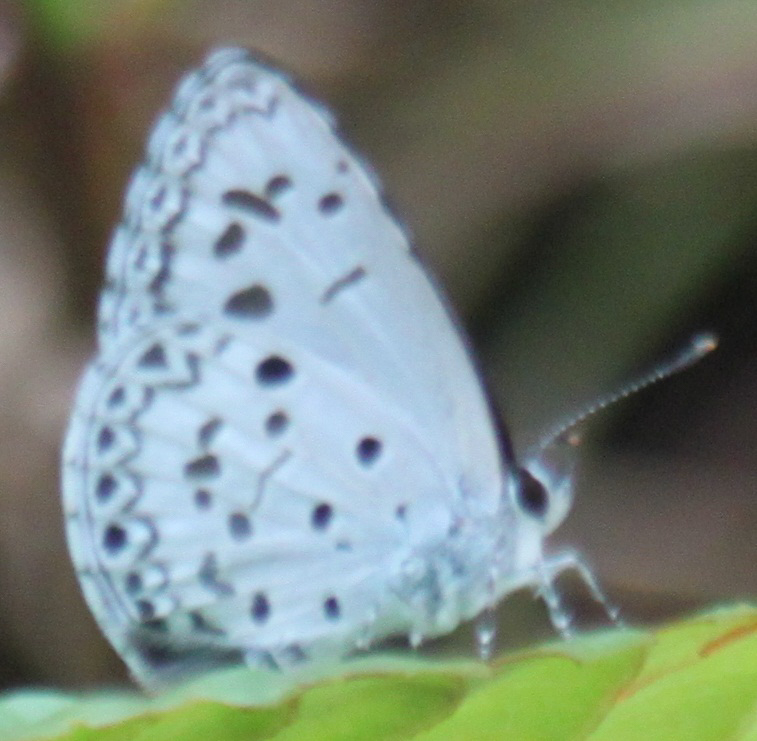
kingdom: Animalia
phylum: Arthropoda
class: Insecta
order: Lepidoptera
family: Lycaenidae
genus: Acytolepis
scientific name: Acytolepis puspa
